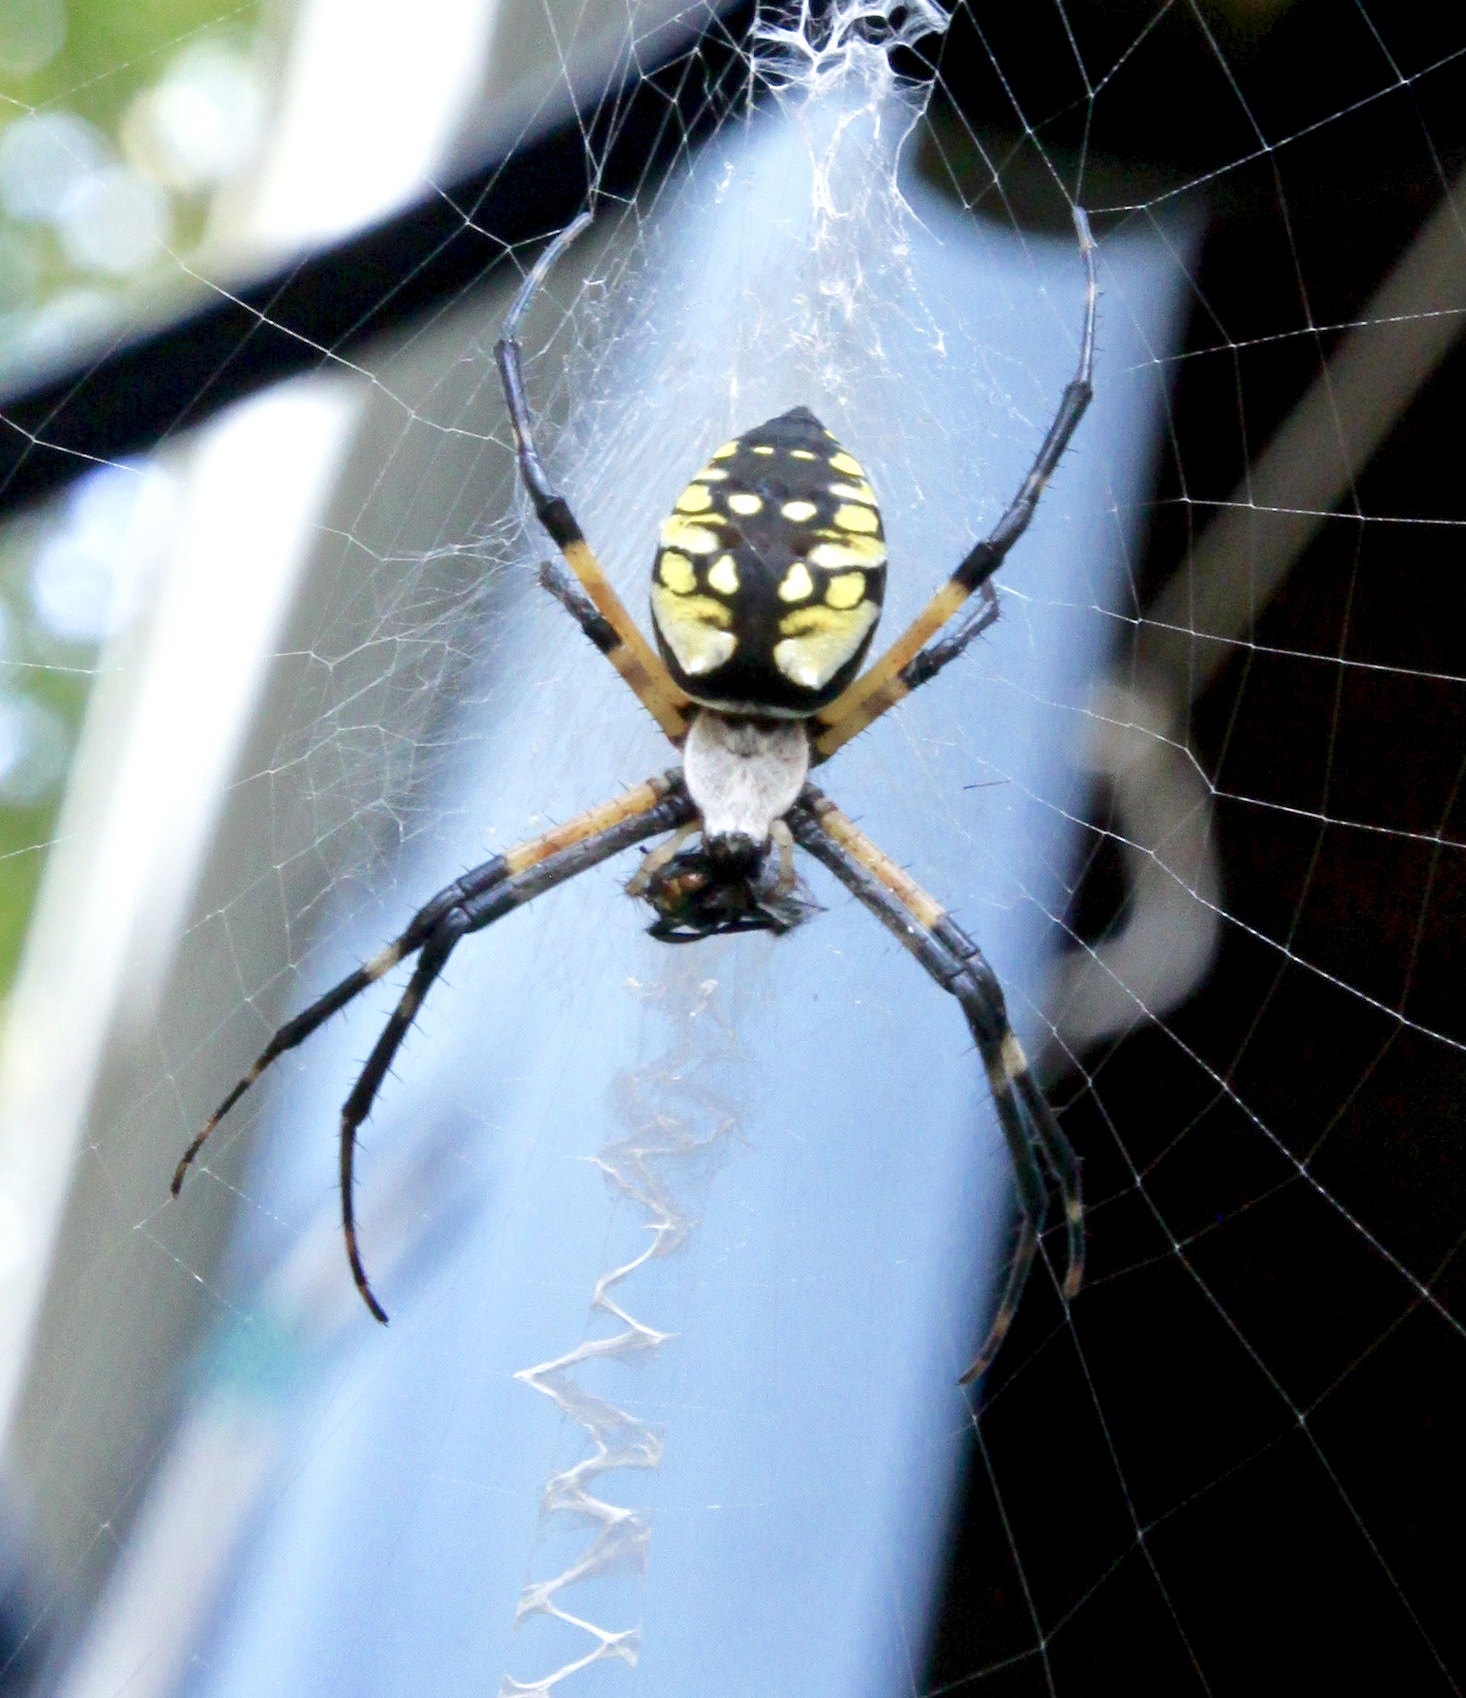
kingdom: Animalia
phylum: Arthropoda
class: Arachnida
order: Araneae
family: Araneidae
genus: Argiope
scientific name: Argiope aurantia
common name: Orb weavers
